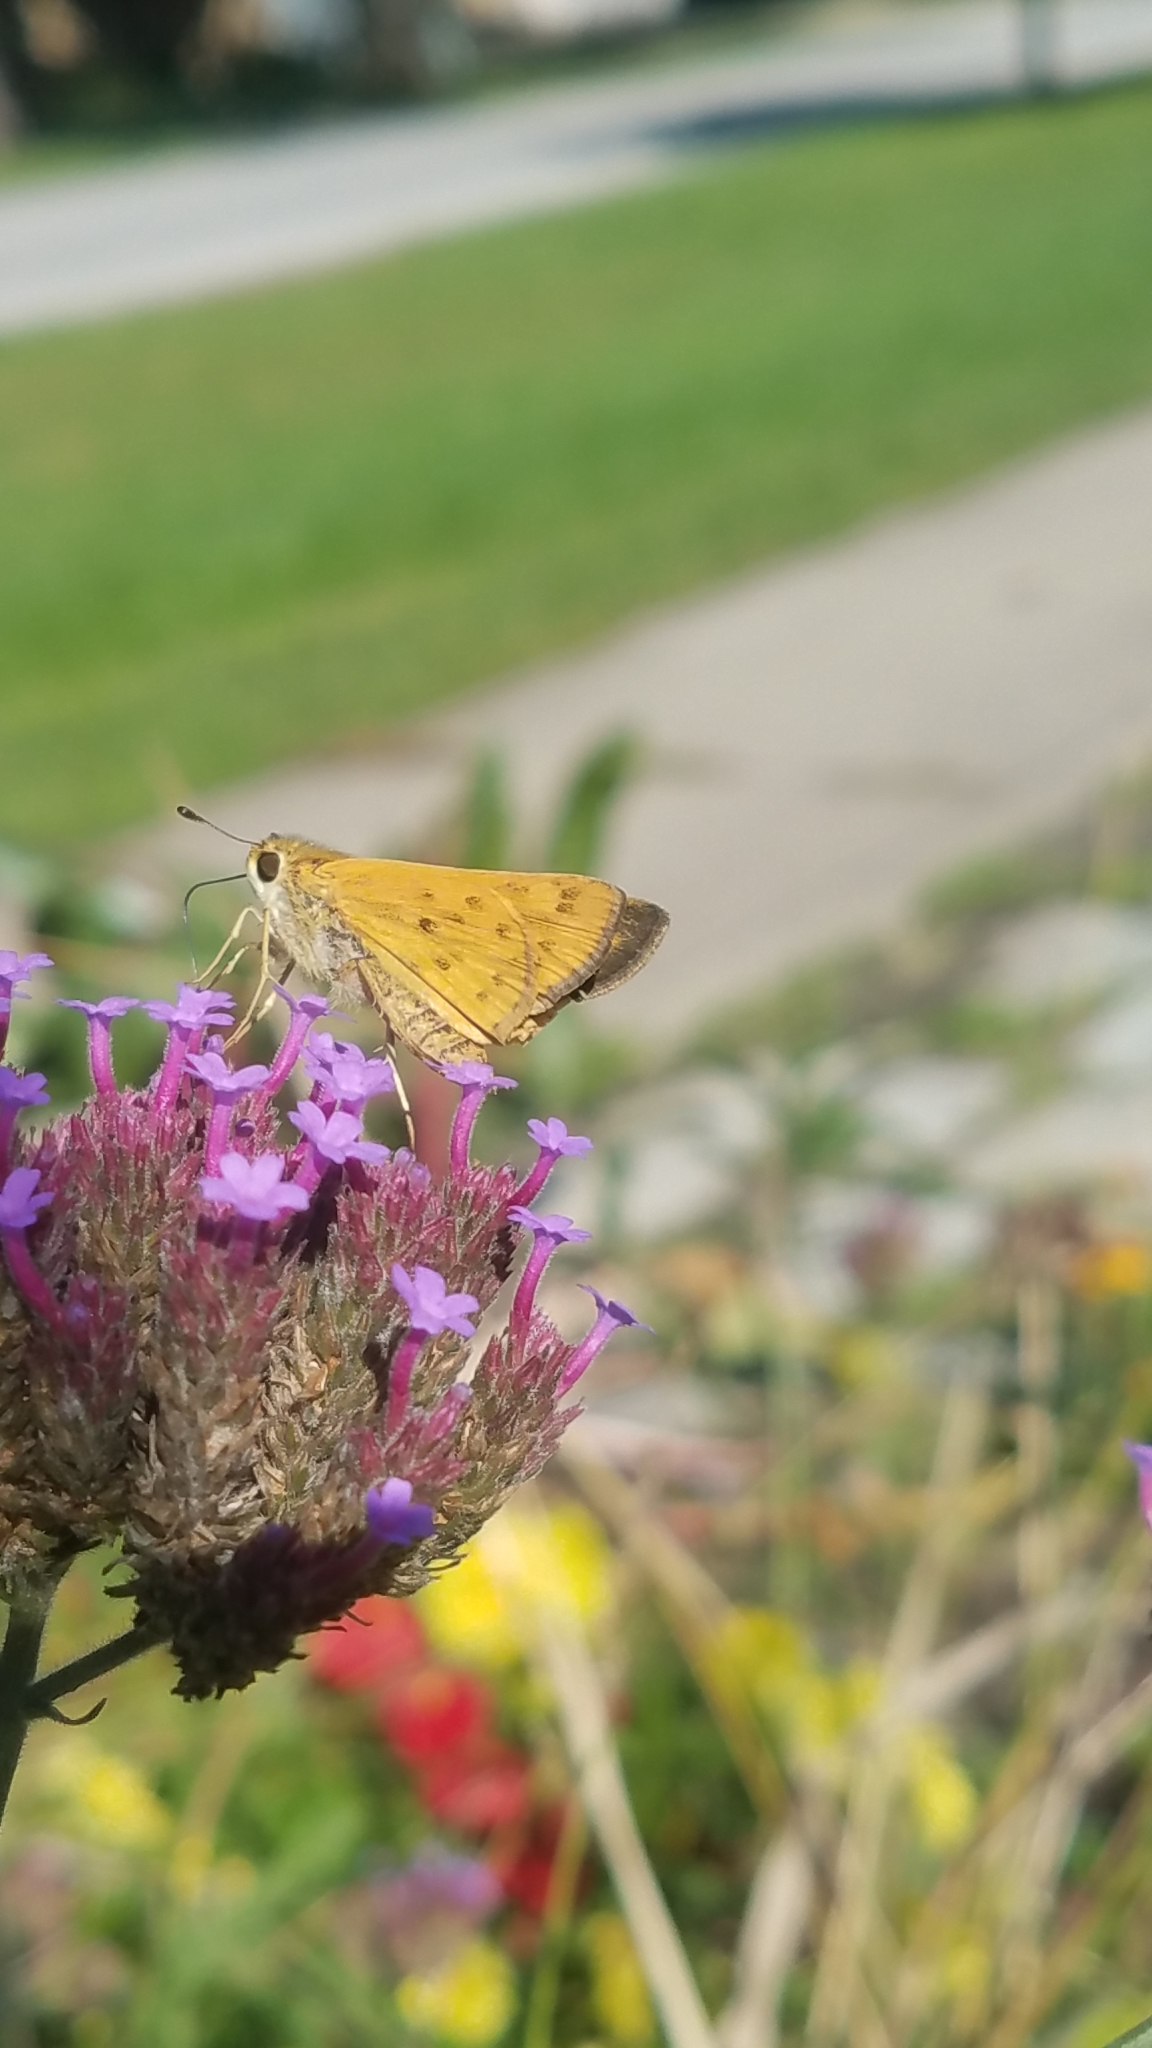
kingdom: Animalia
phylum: Arthropoda
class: Insecta
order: Lepidoptera
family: Hesperiidae
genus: Hylephila
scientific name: Hylephila phyleus
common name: Fiery skipper
